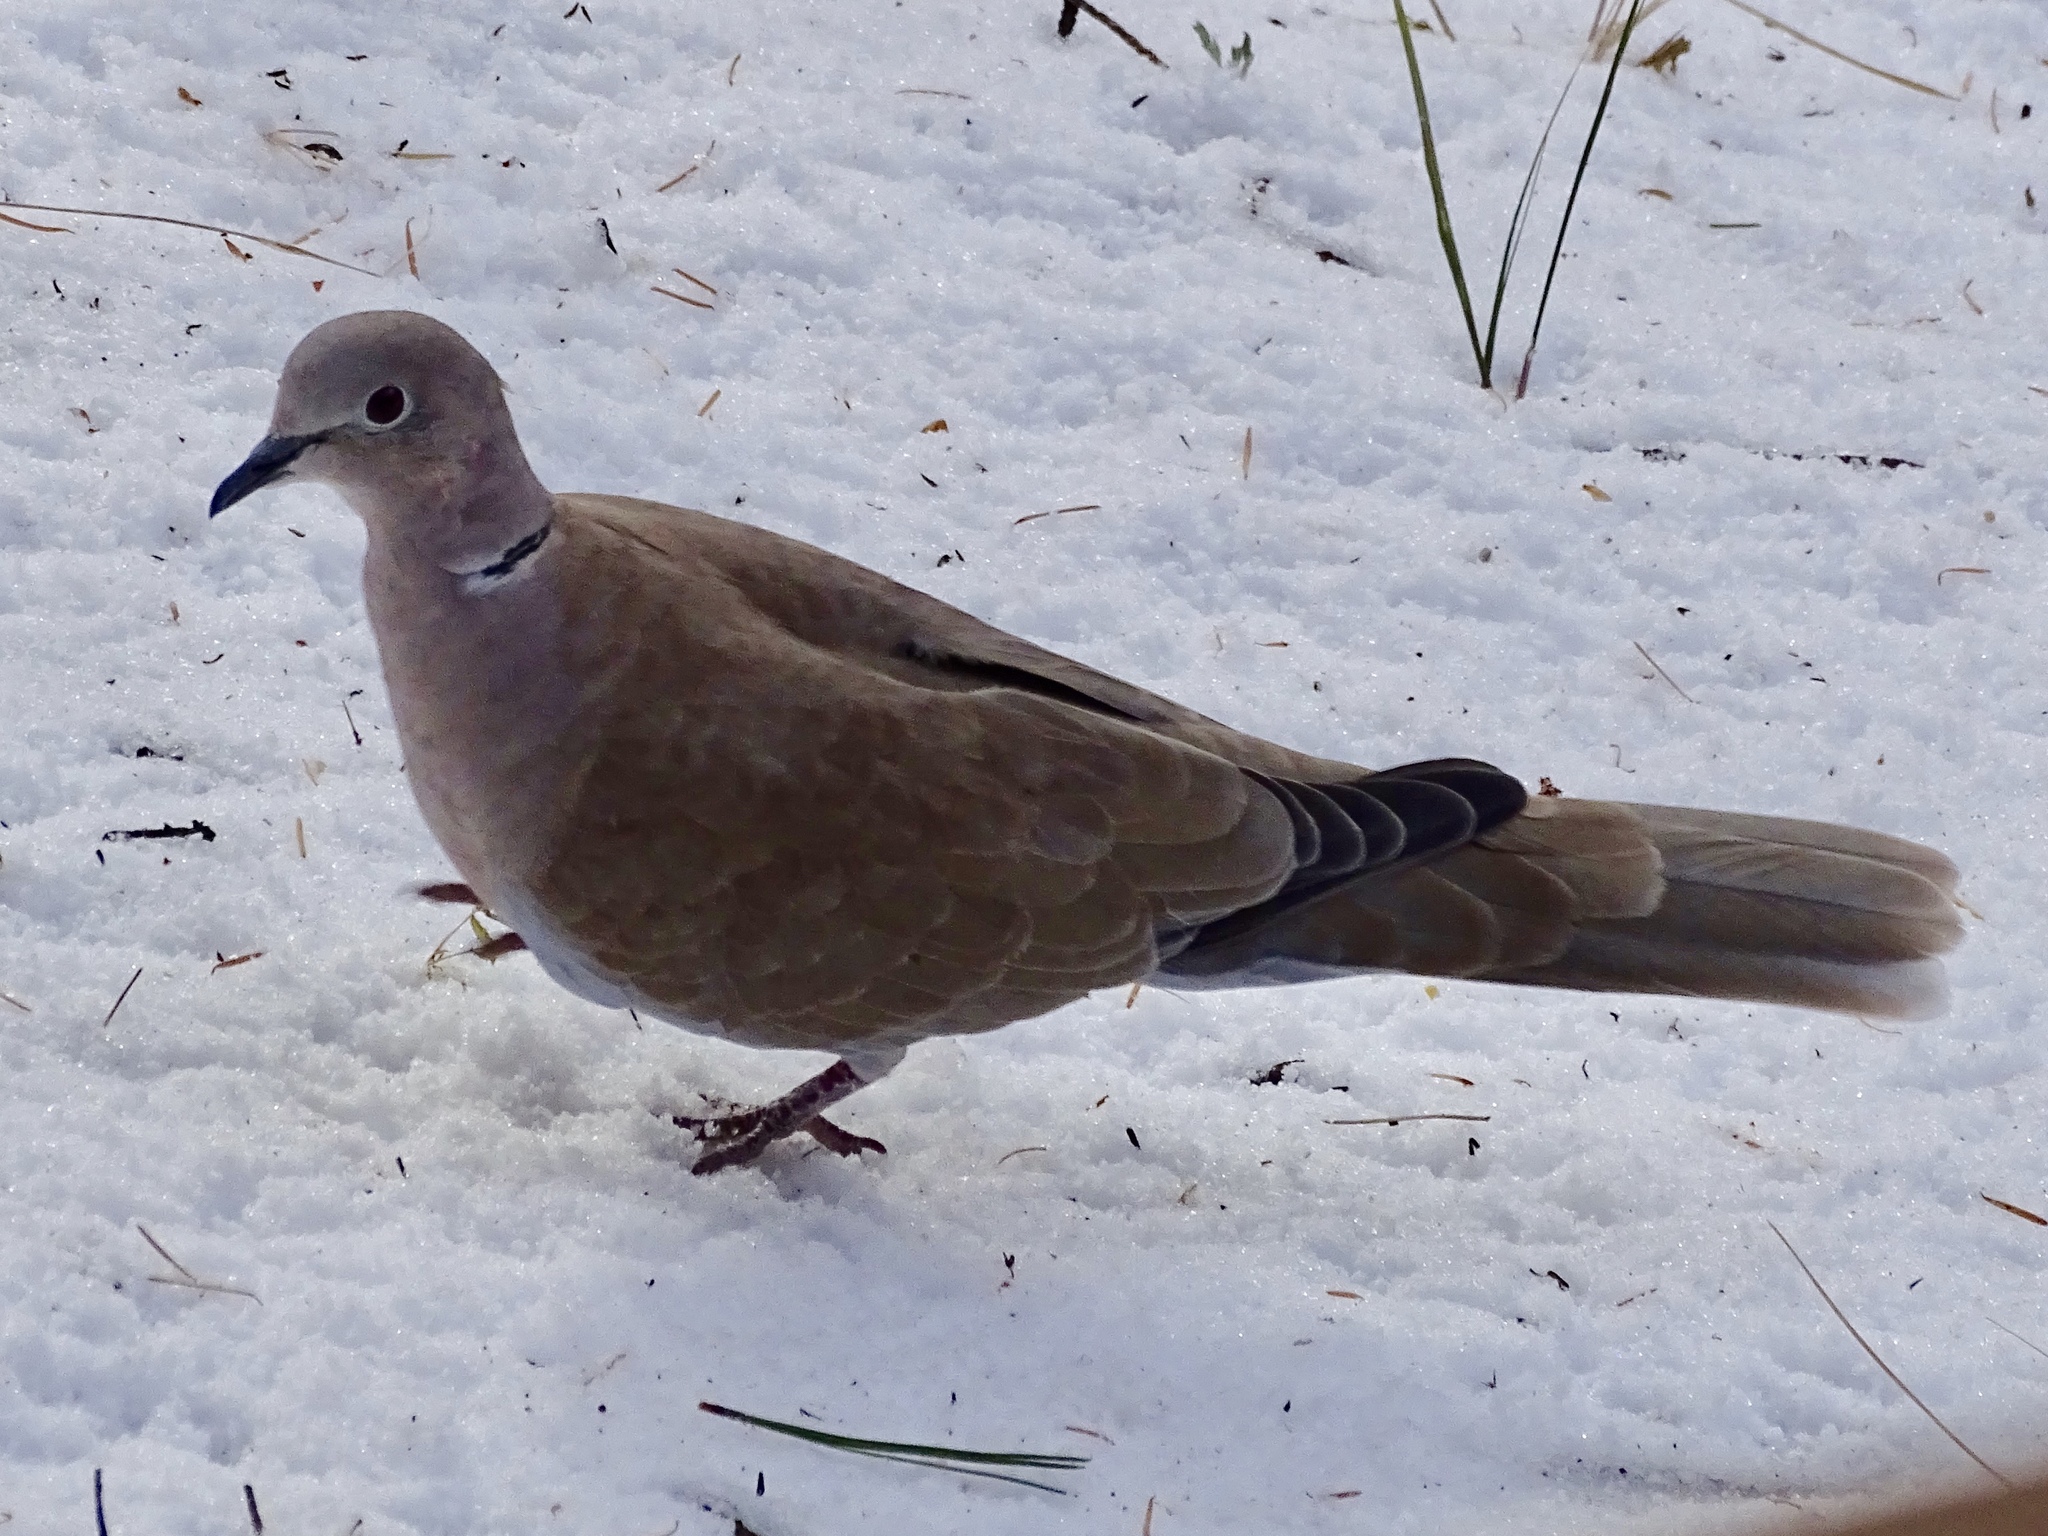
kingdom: Animalia
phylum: Chordata
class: Aves
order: Columbiformes
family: Columbidae
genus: Streptopelia
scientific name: Streptopelia decaocto
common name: Eurasian collared dove
